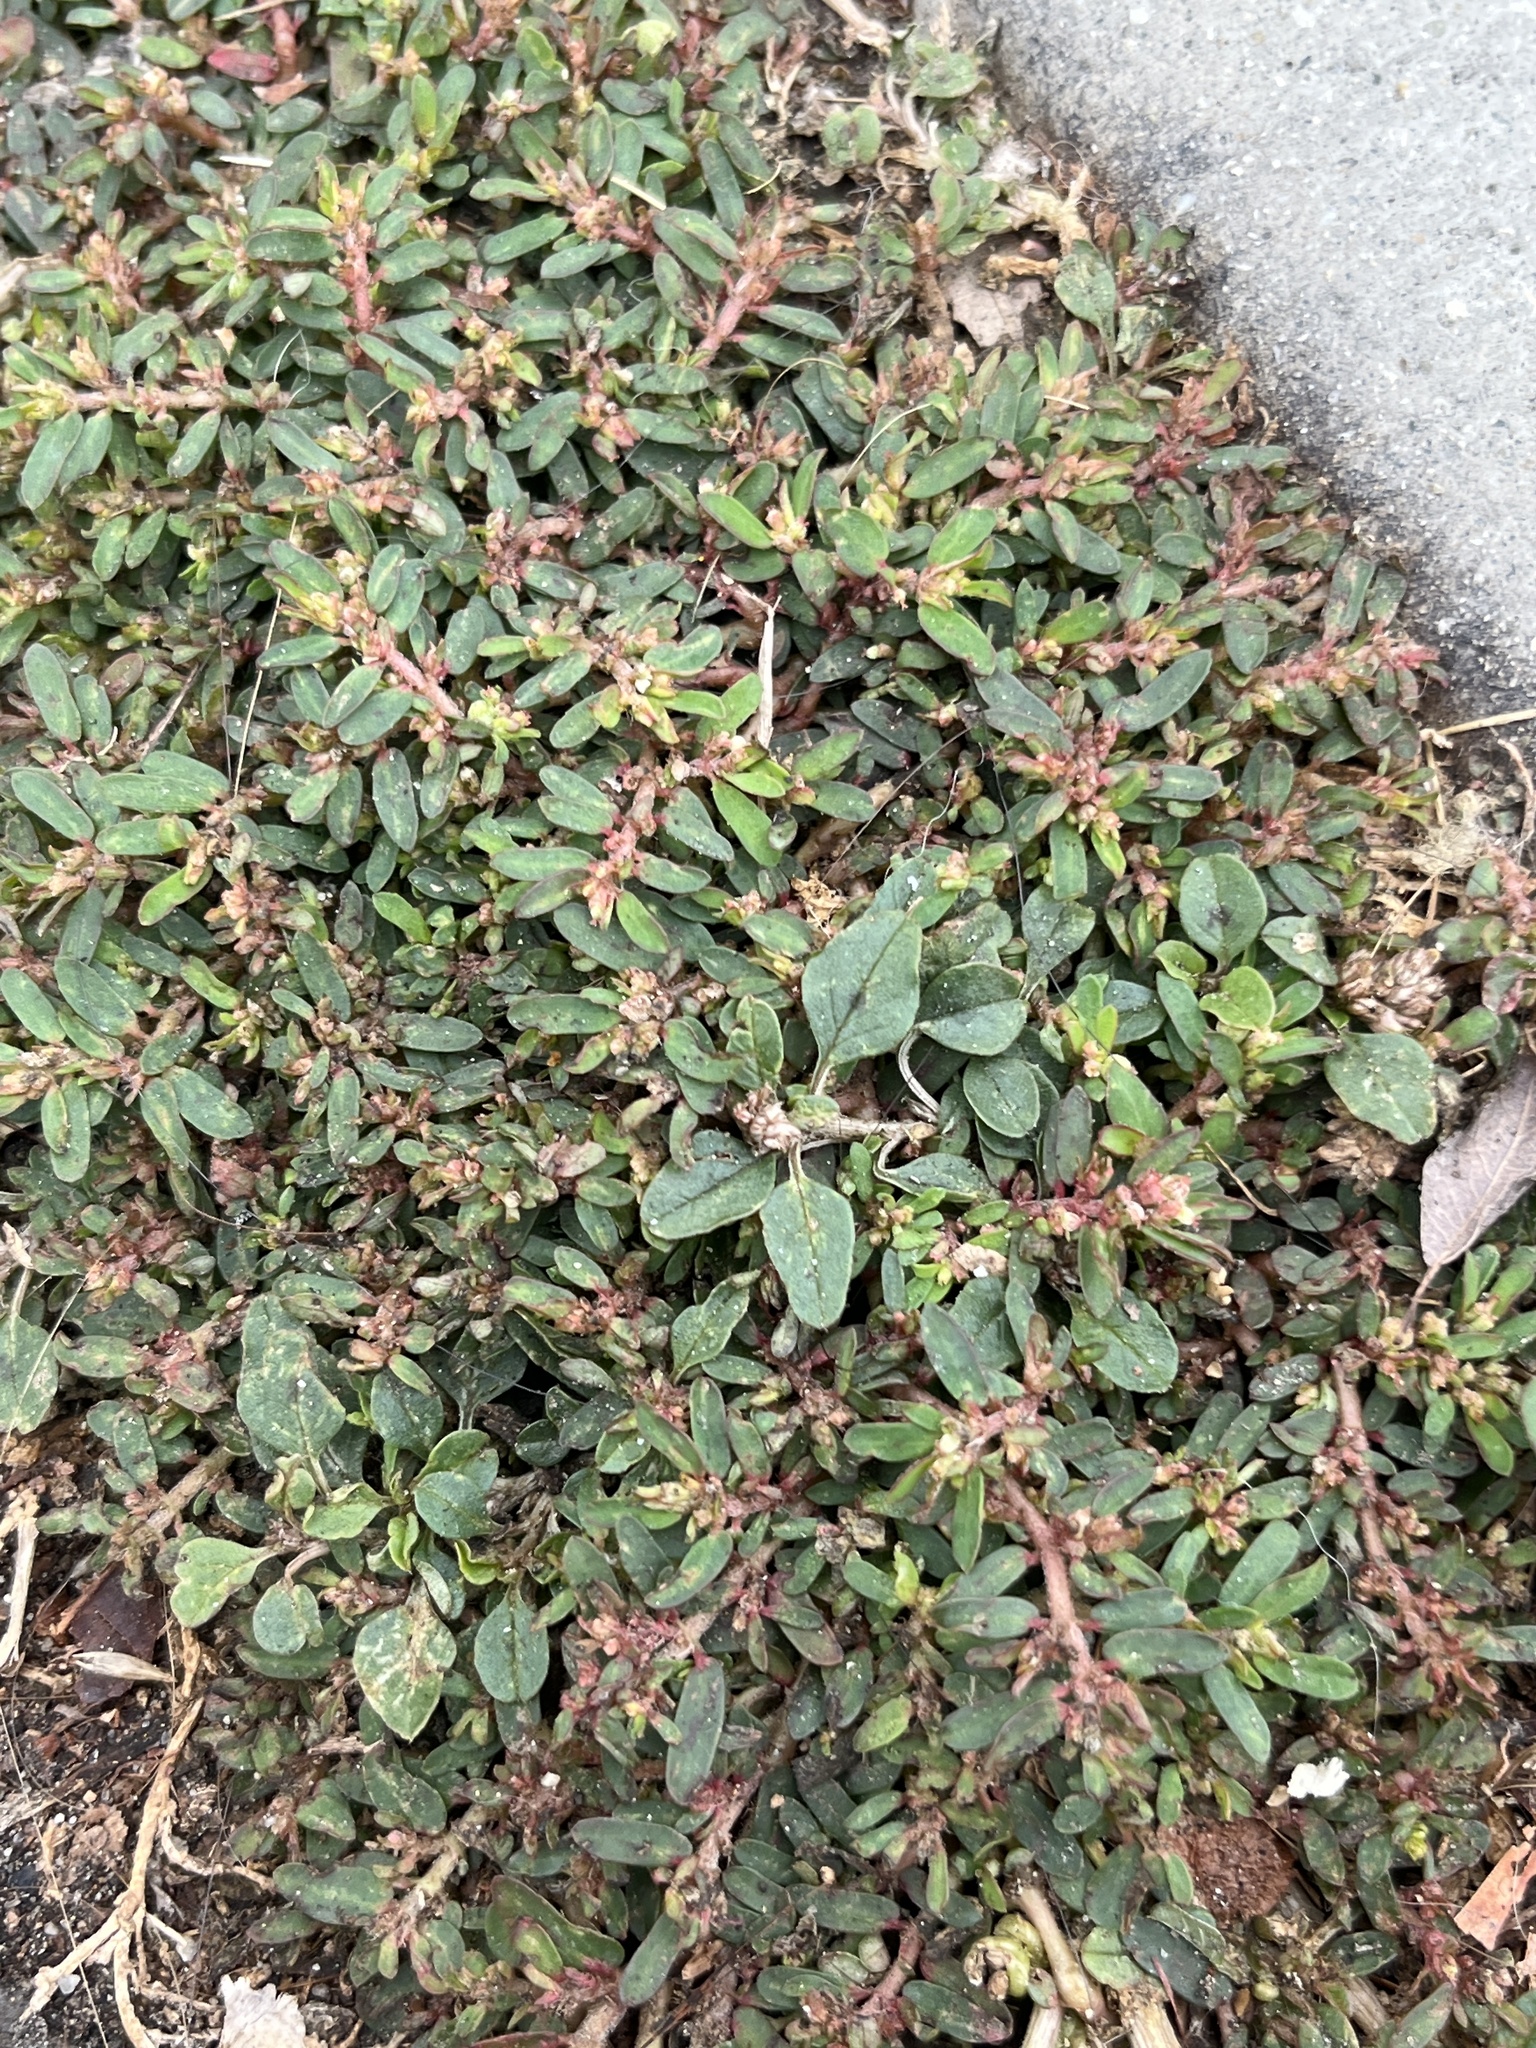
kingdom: Plantae
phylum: Tracheophyta
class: Magnoliopsida
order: Malpighiales
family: Euphorbiaceae
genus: Euphorbia
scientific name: Euphorbia maculata
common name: Spotted spurge
